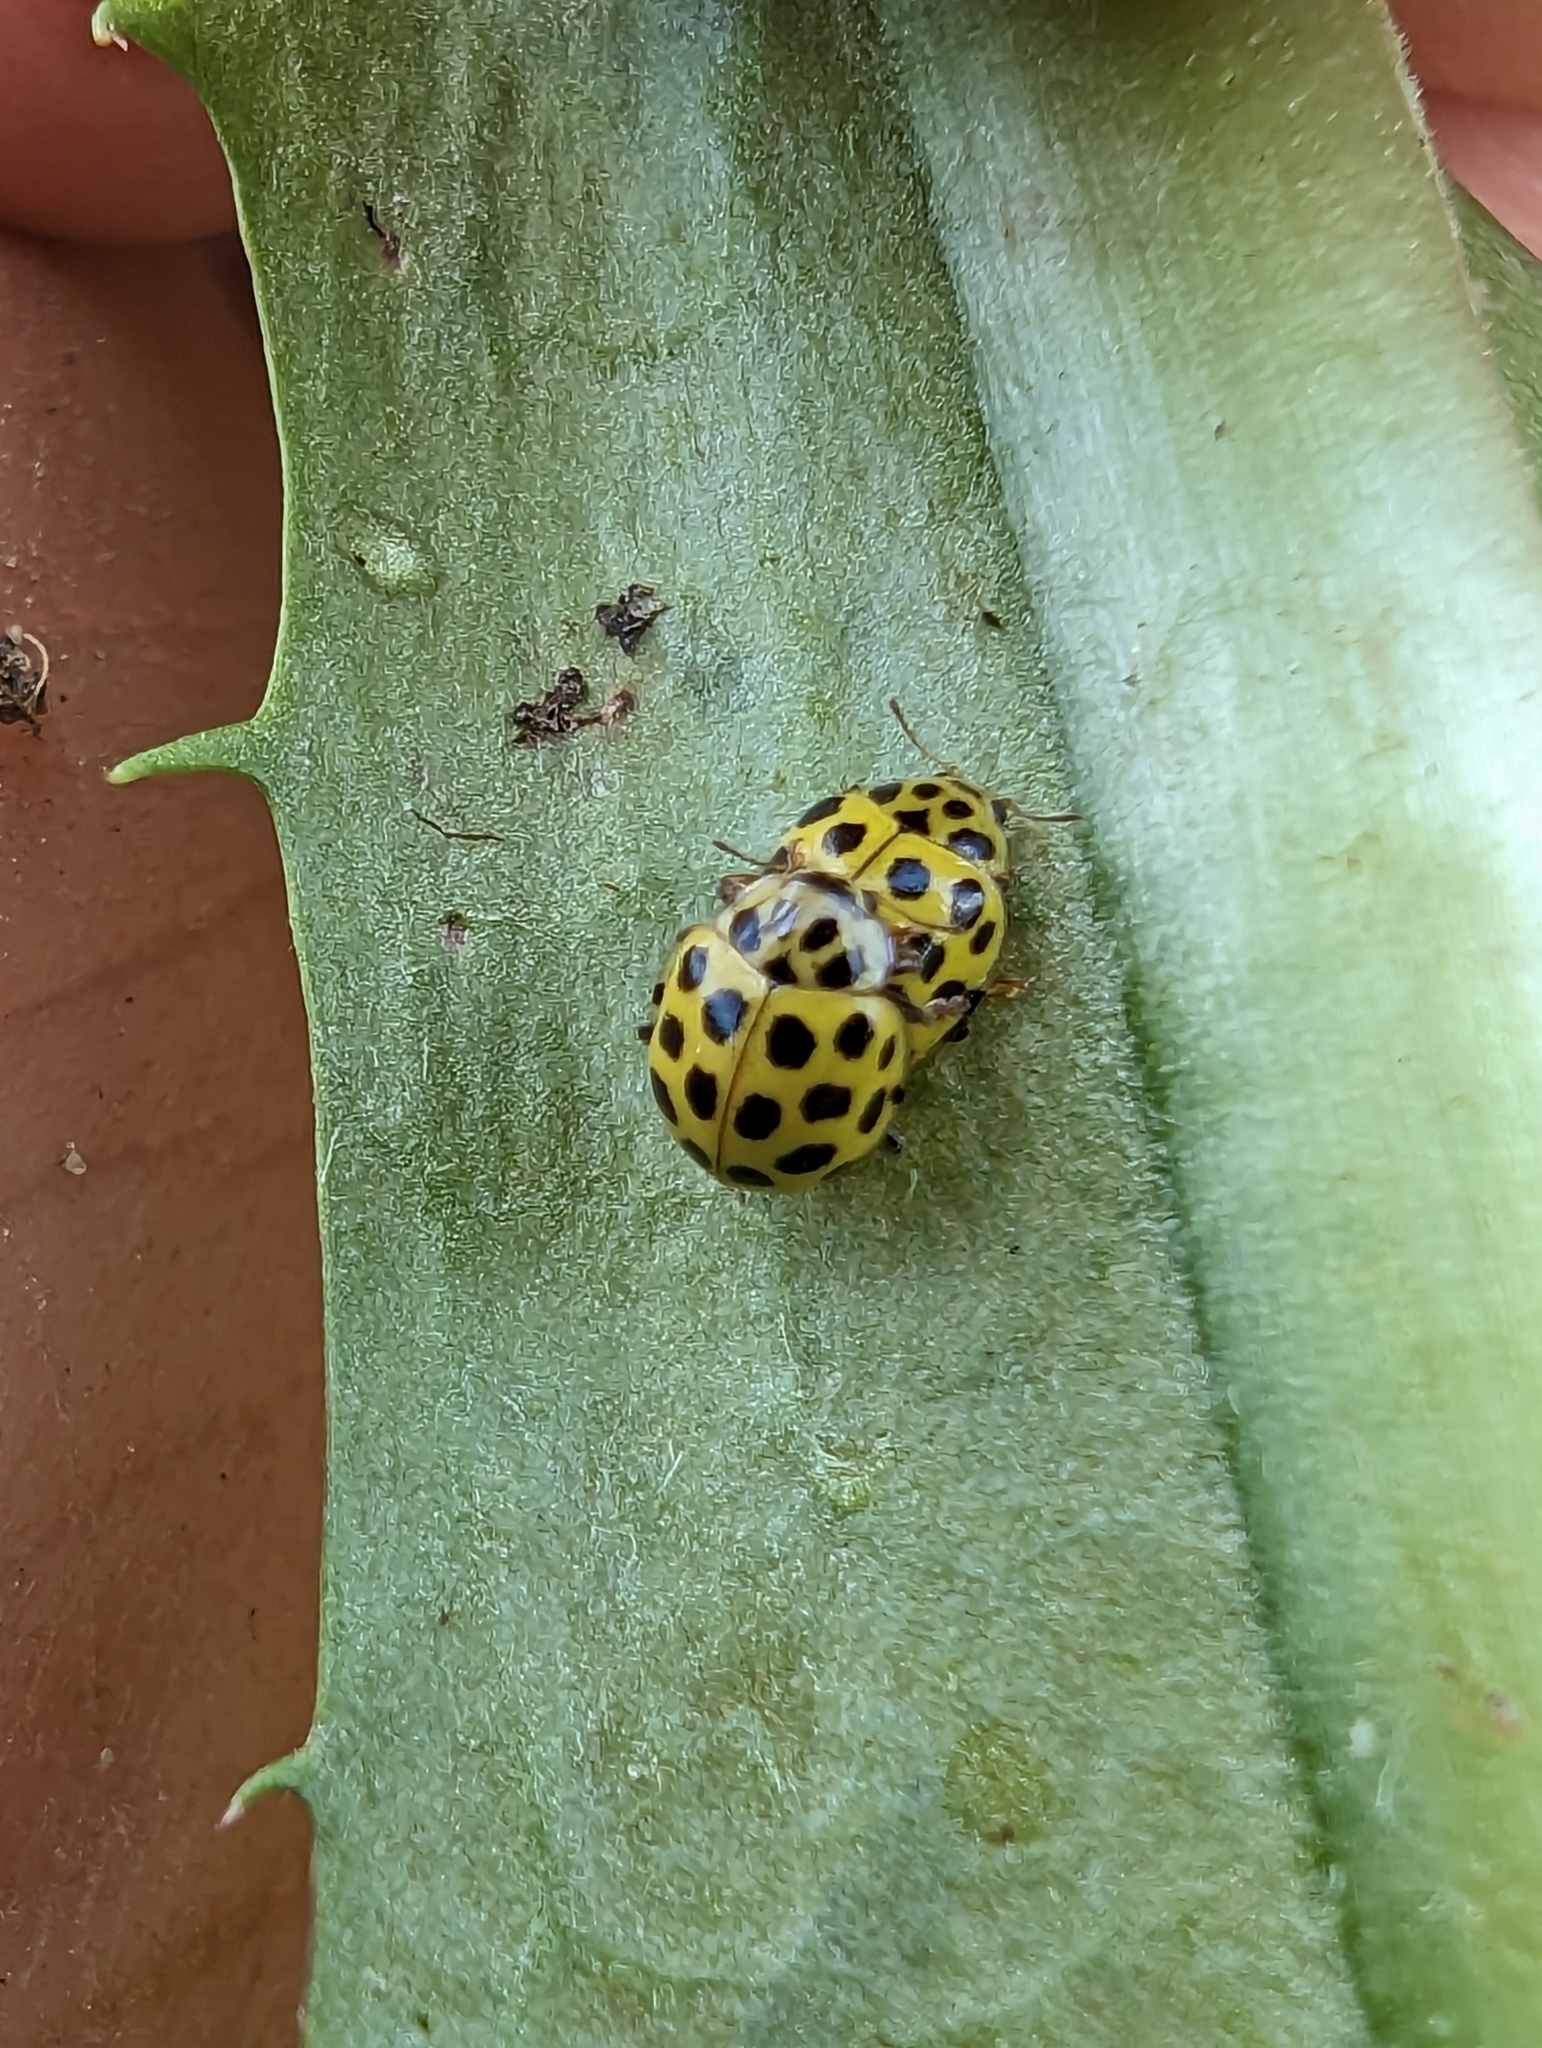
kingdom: Animalia
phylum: Arthropoda
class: Insecta
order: Coleoptera
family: Coccinellidae
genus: Psyllobora
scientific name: Psyllobora vigintiduopunctata
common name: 22-spot ladybird
